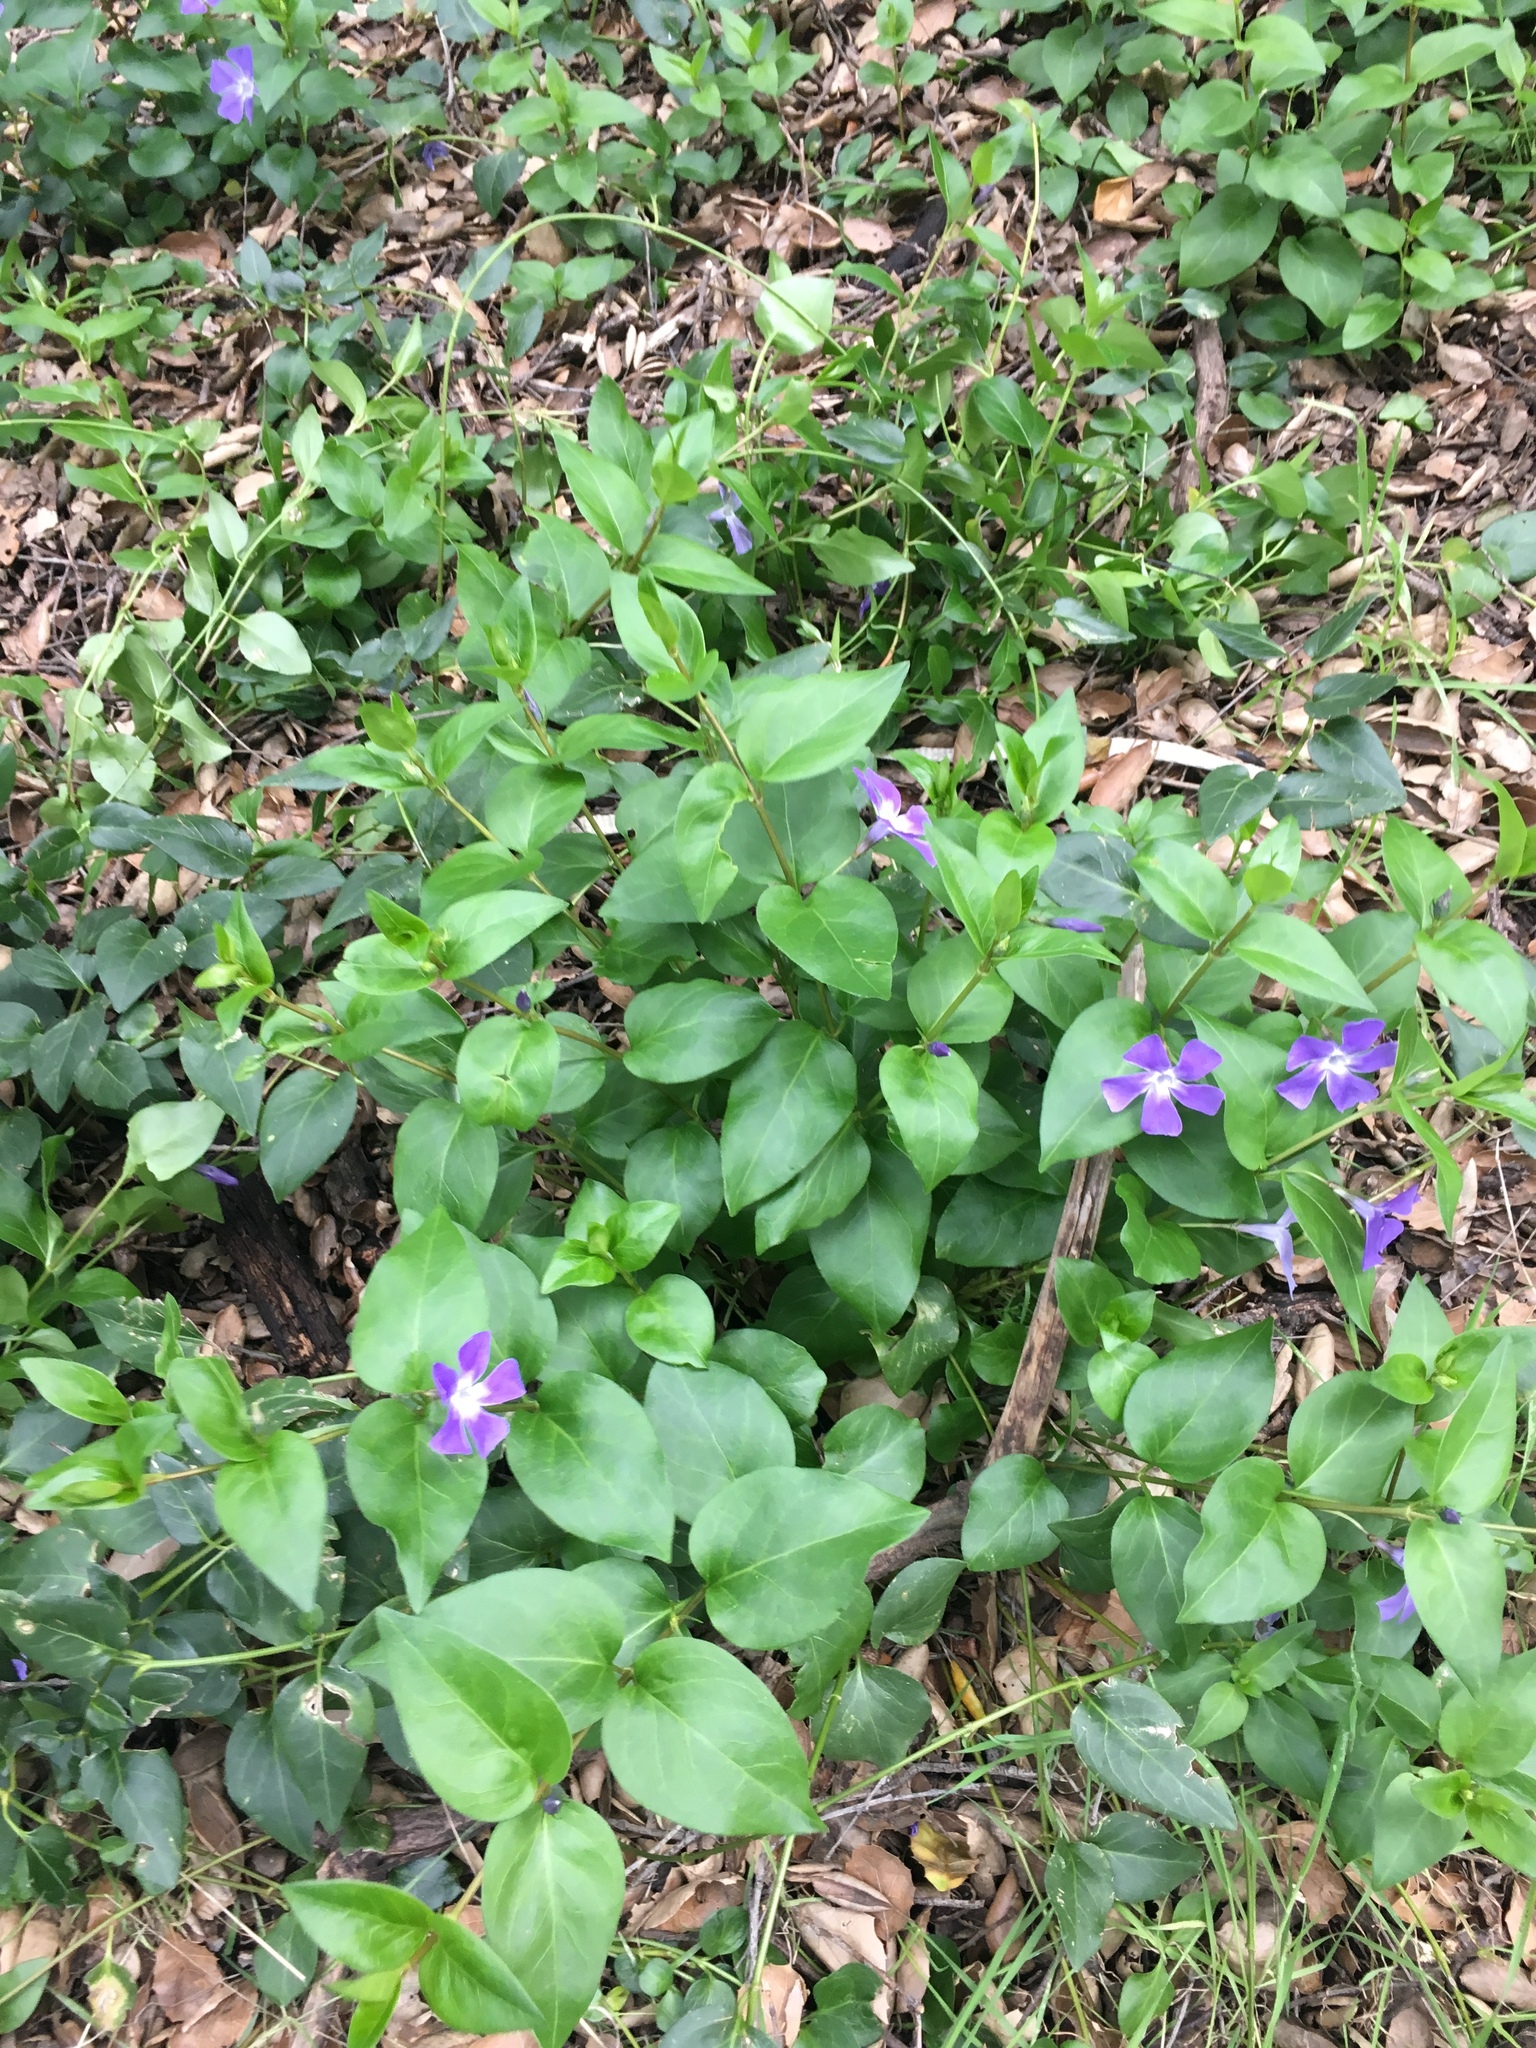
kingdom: Plantae
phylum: Tracheophyta
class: Magnoliopsida
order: Gentianales
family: Apocynaceae
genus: Vinca
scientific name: Vinca major
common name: Greater periwinkle
